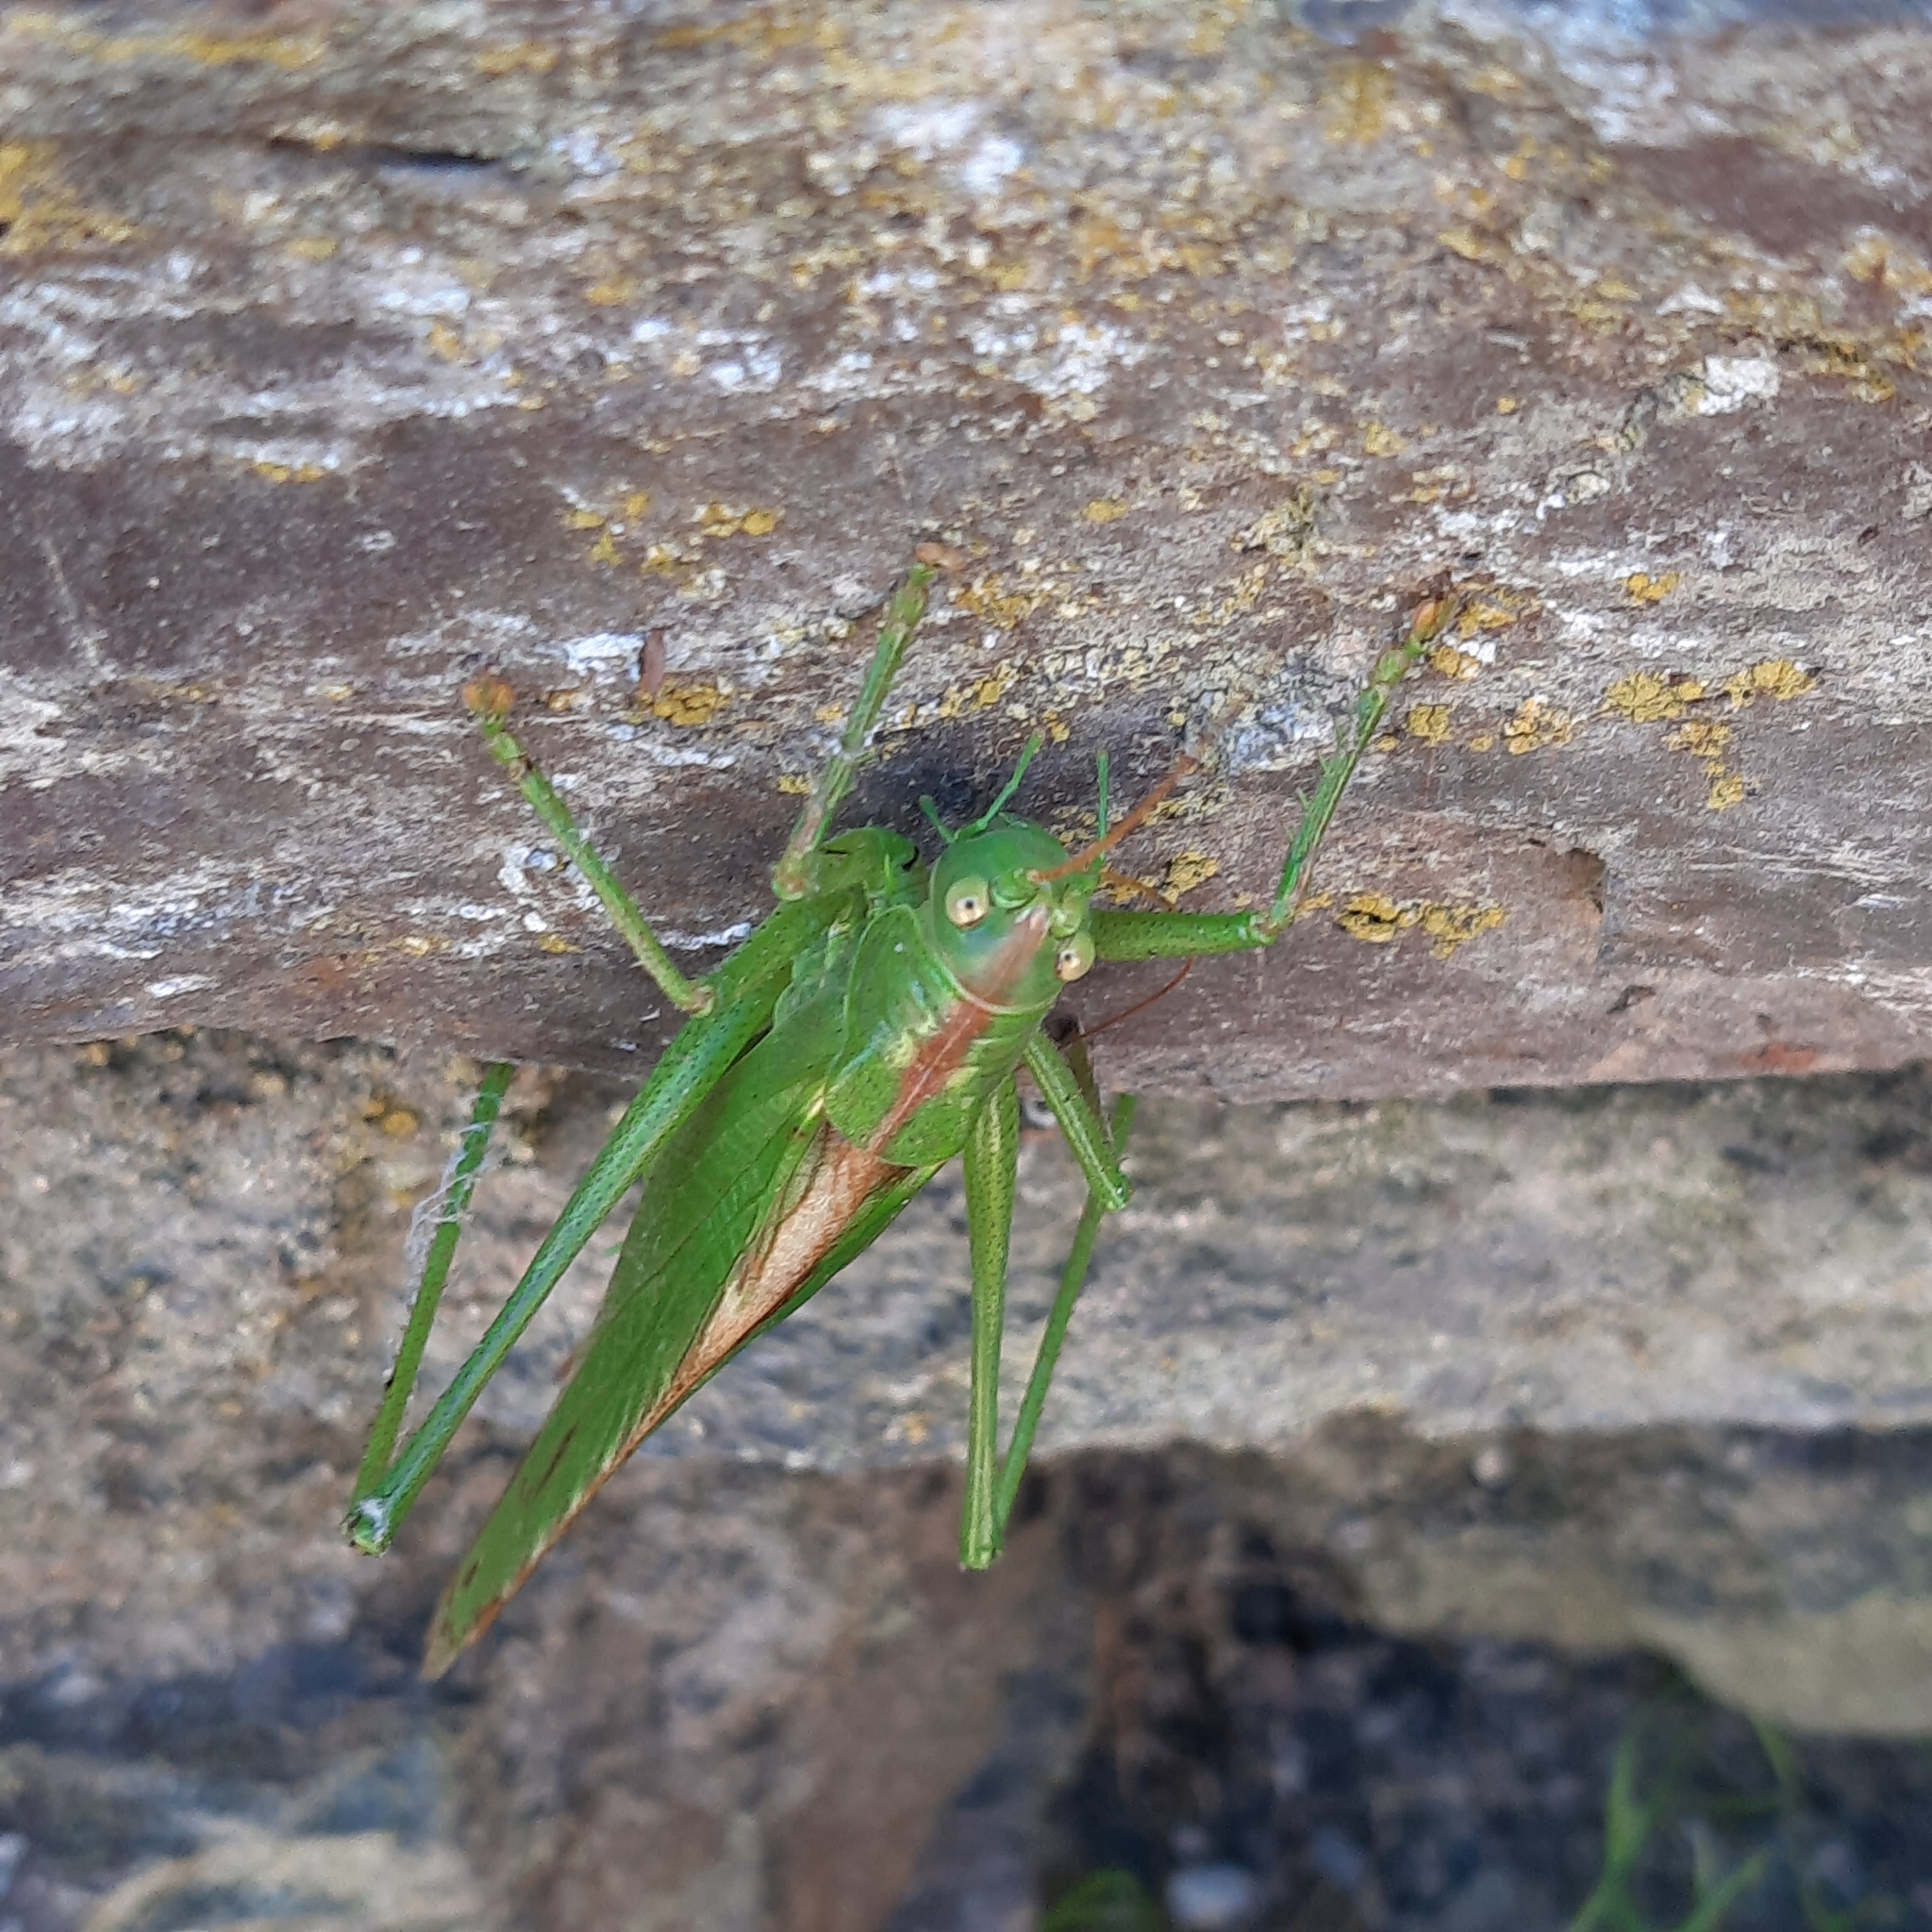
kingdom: Animalia
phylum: Arthropoda
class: Insecta
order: Orthoptera
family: Tettigoniidae
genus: Tettigonia
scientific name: Tettigonia viridissima
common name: Great green bush-cricket
